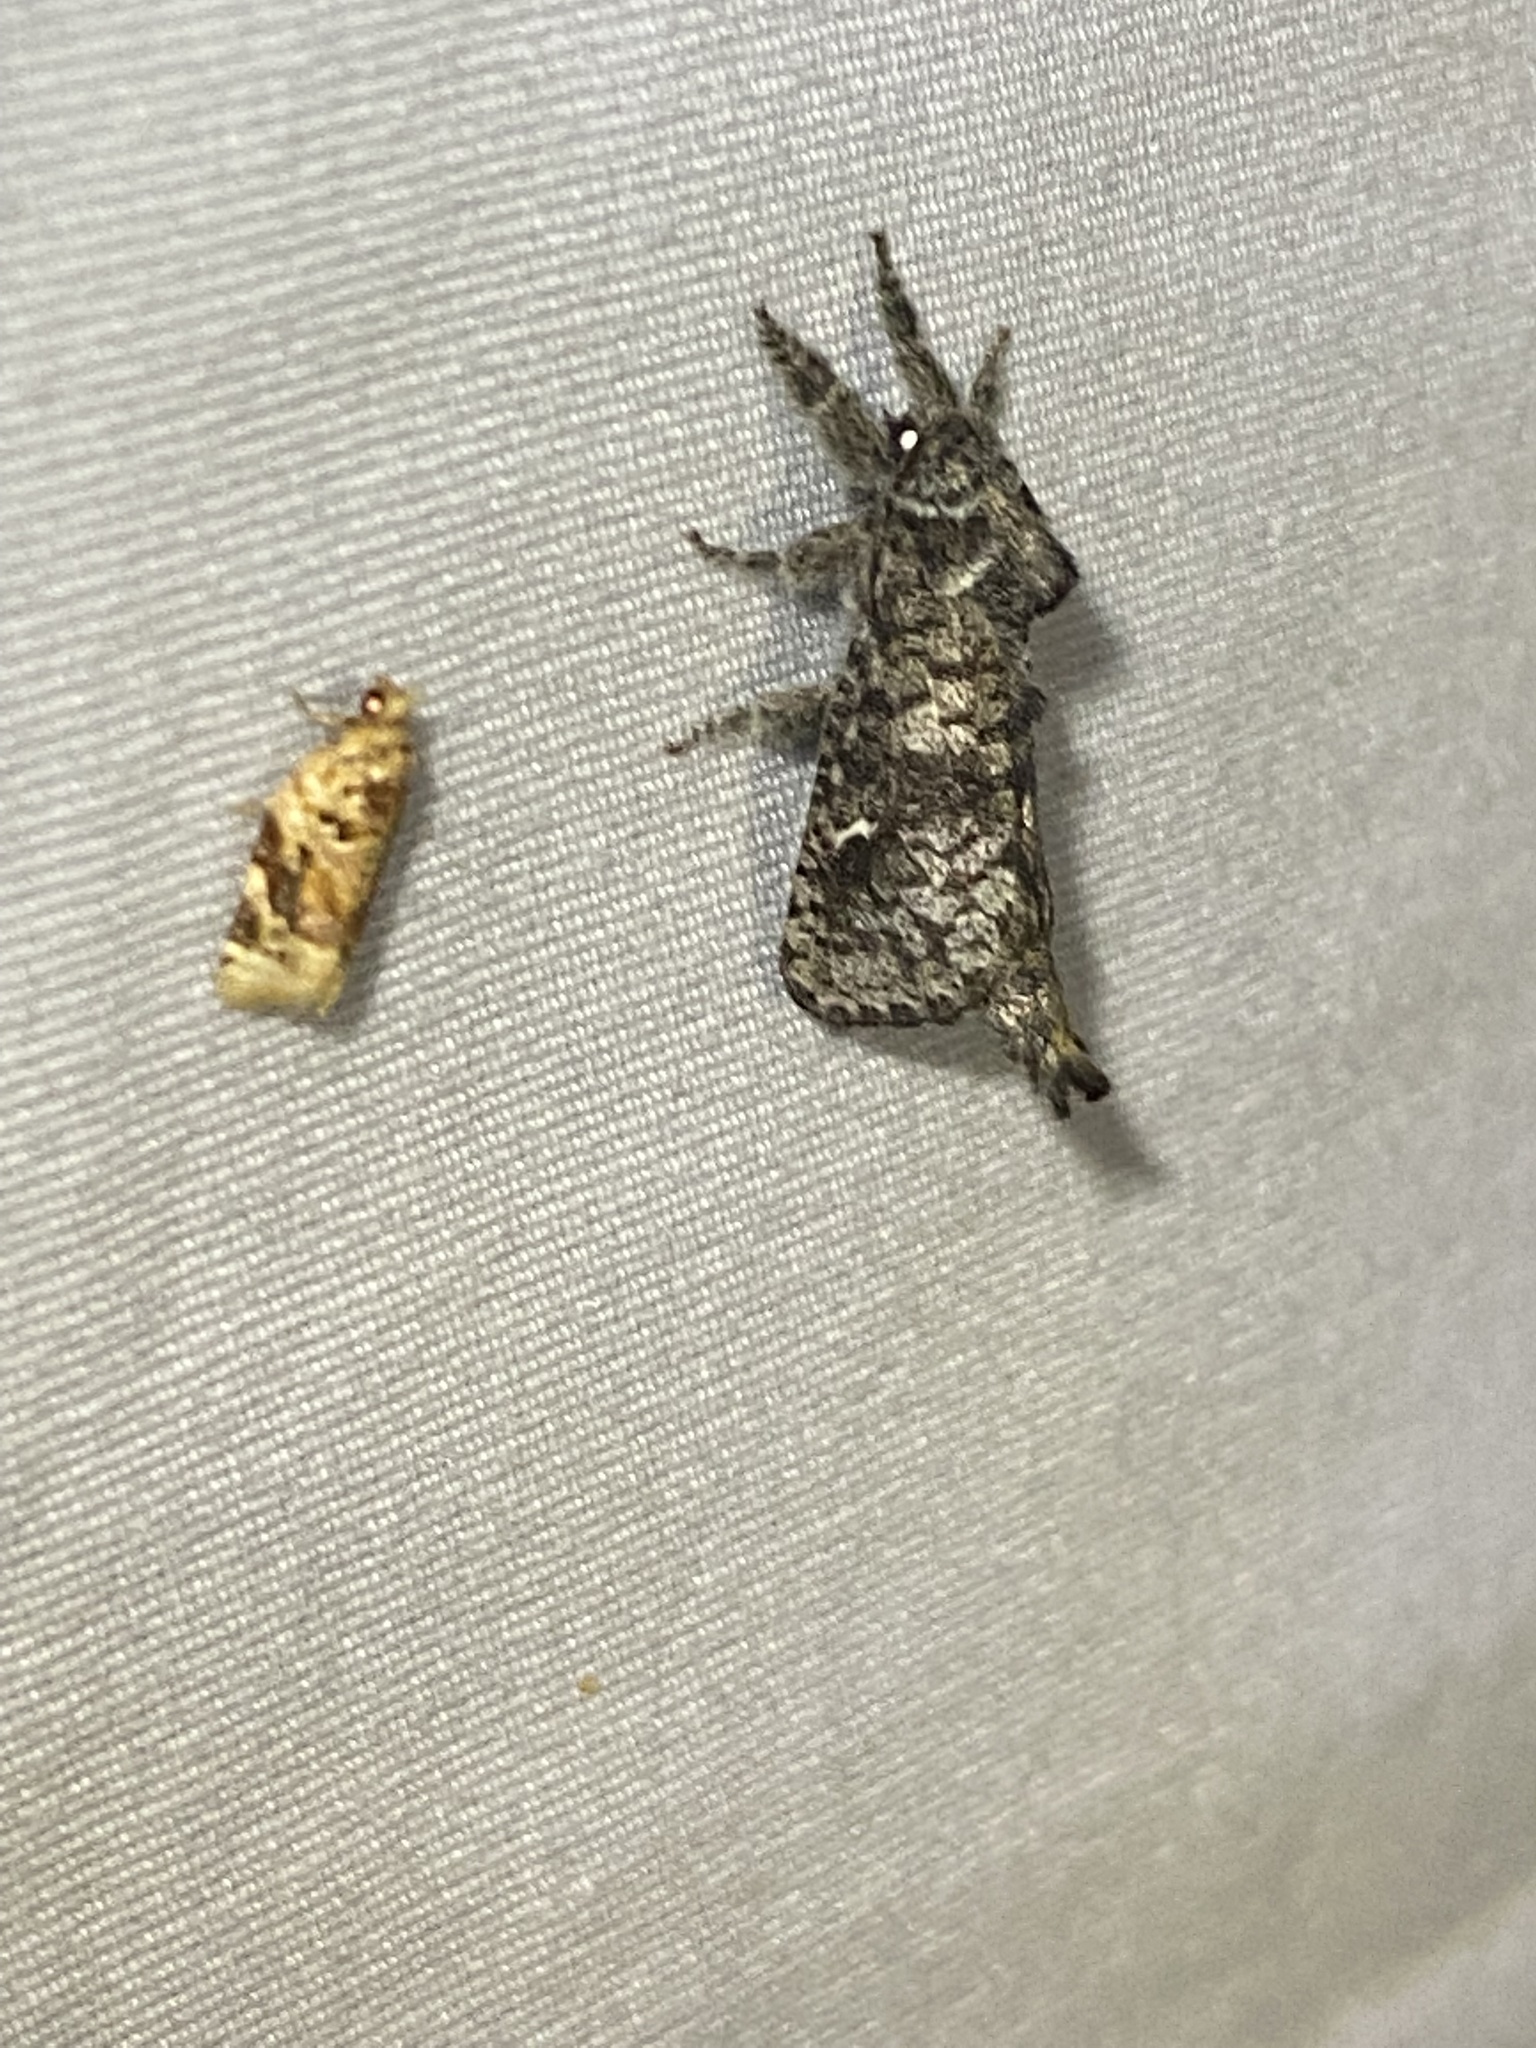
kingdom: Animalia
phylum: Arthropoda
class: Insecta
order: Lepidoptera
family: Cossidae
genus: Givira
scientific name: Givira francesca
